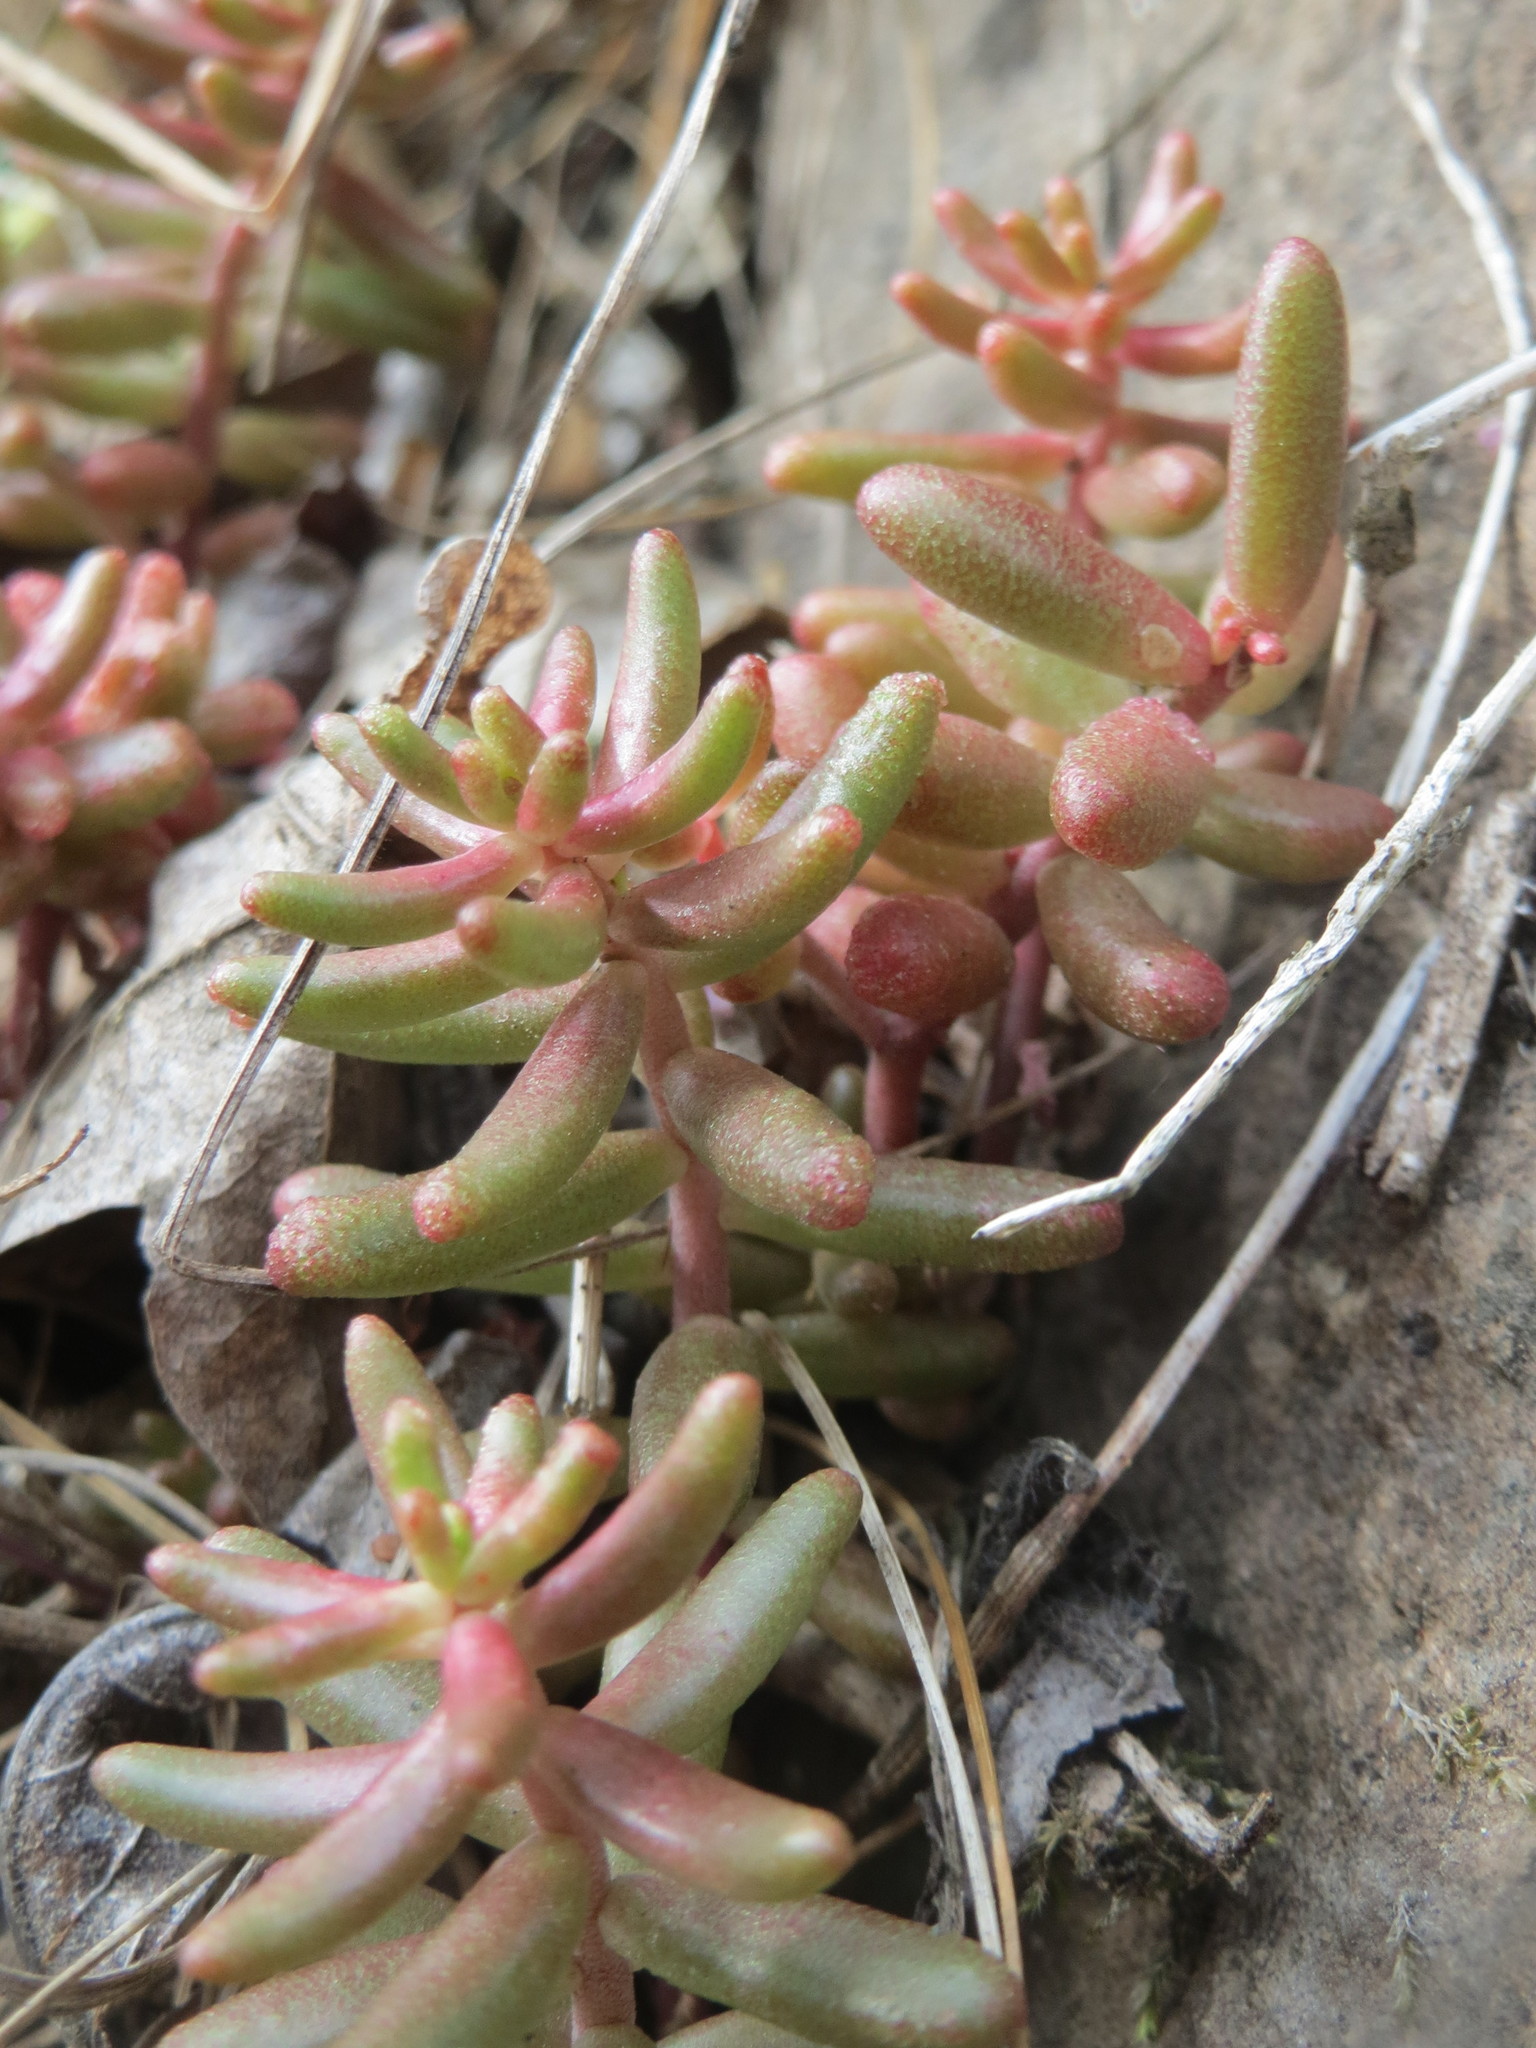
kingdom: Plantae
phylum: Tracheophyta
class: Magnoliopsida
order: Saxifragales
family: Crassulaceae
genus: Sedum
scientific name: Sedum album
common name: White stonecrop
